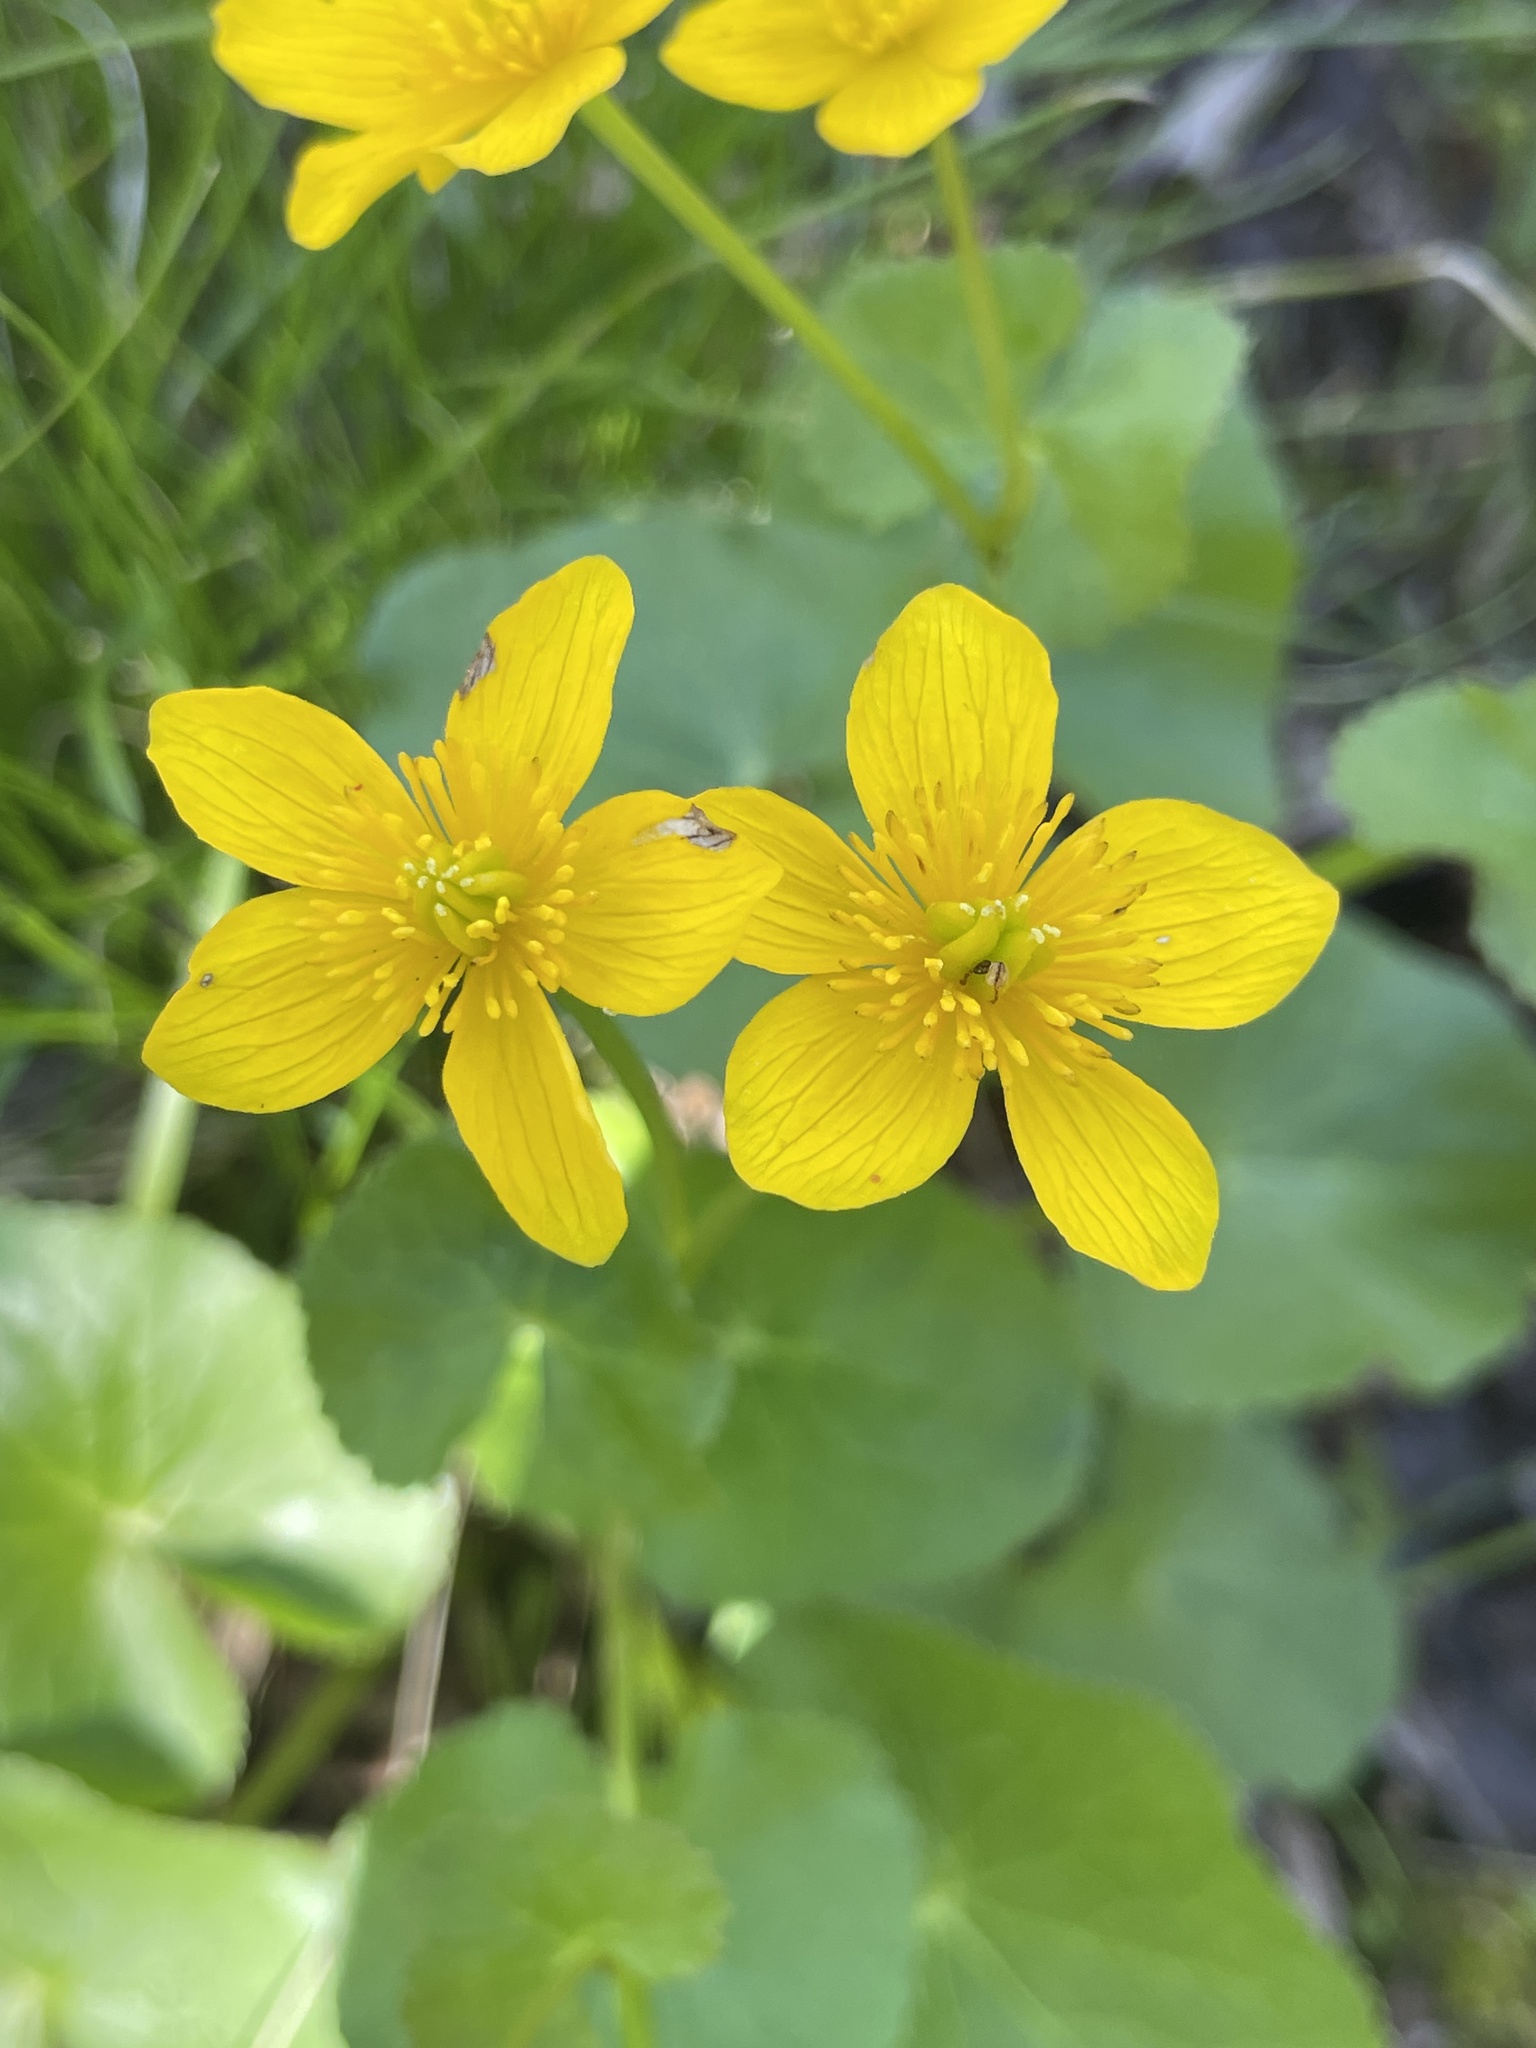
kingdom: Plantae
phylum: Tracheophyta
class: Magnoliopsida
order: Ranunculales
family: Ranunculaceae
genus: Caltha
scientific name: Caltha palustris
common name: Marsh marigold
